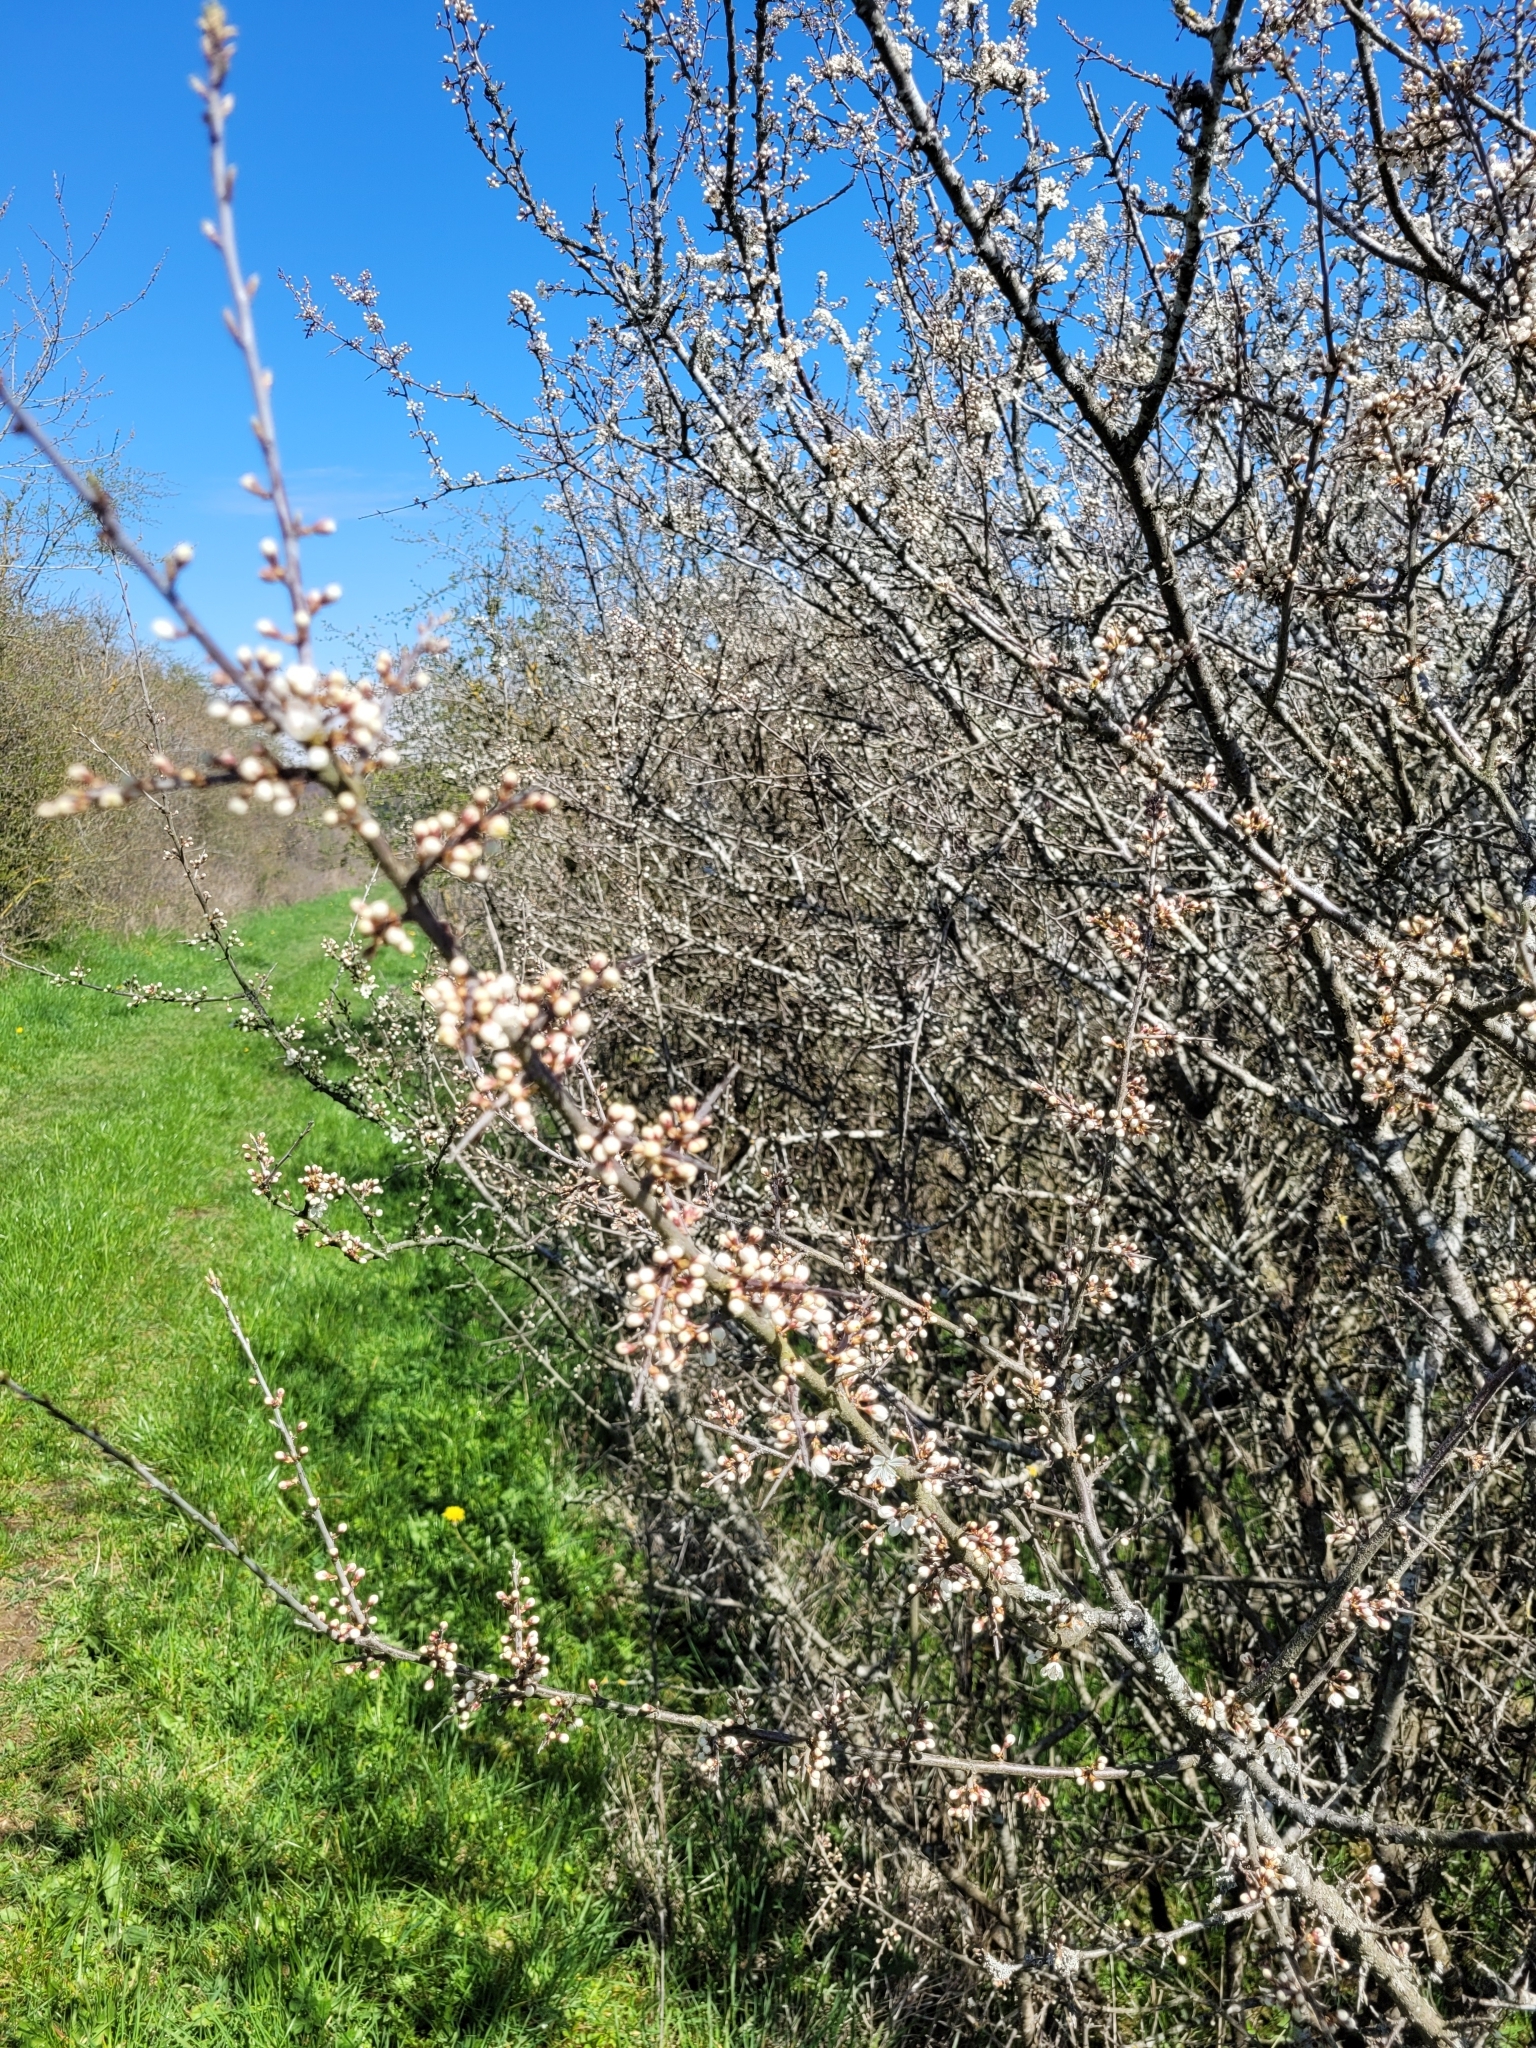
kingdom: Plantae
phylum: Tracheophyta
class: Magnoliopsida
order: Rosales
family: Rosaceae
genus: Prunus
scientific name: Prunus spinosa
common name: Blackthorn
